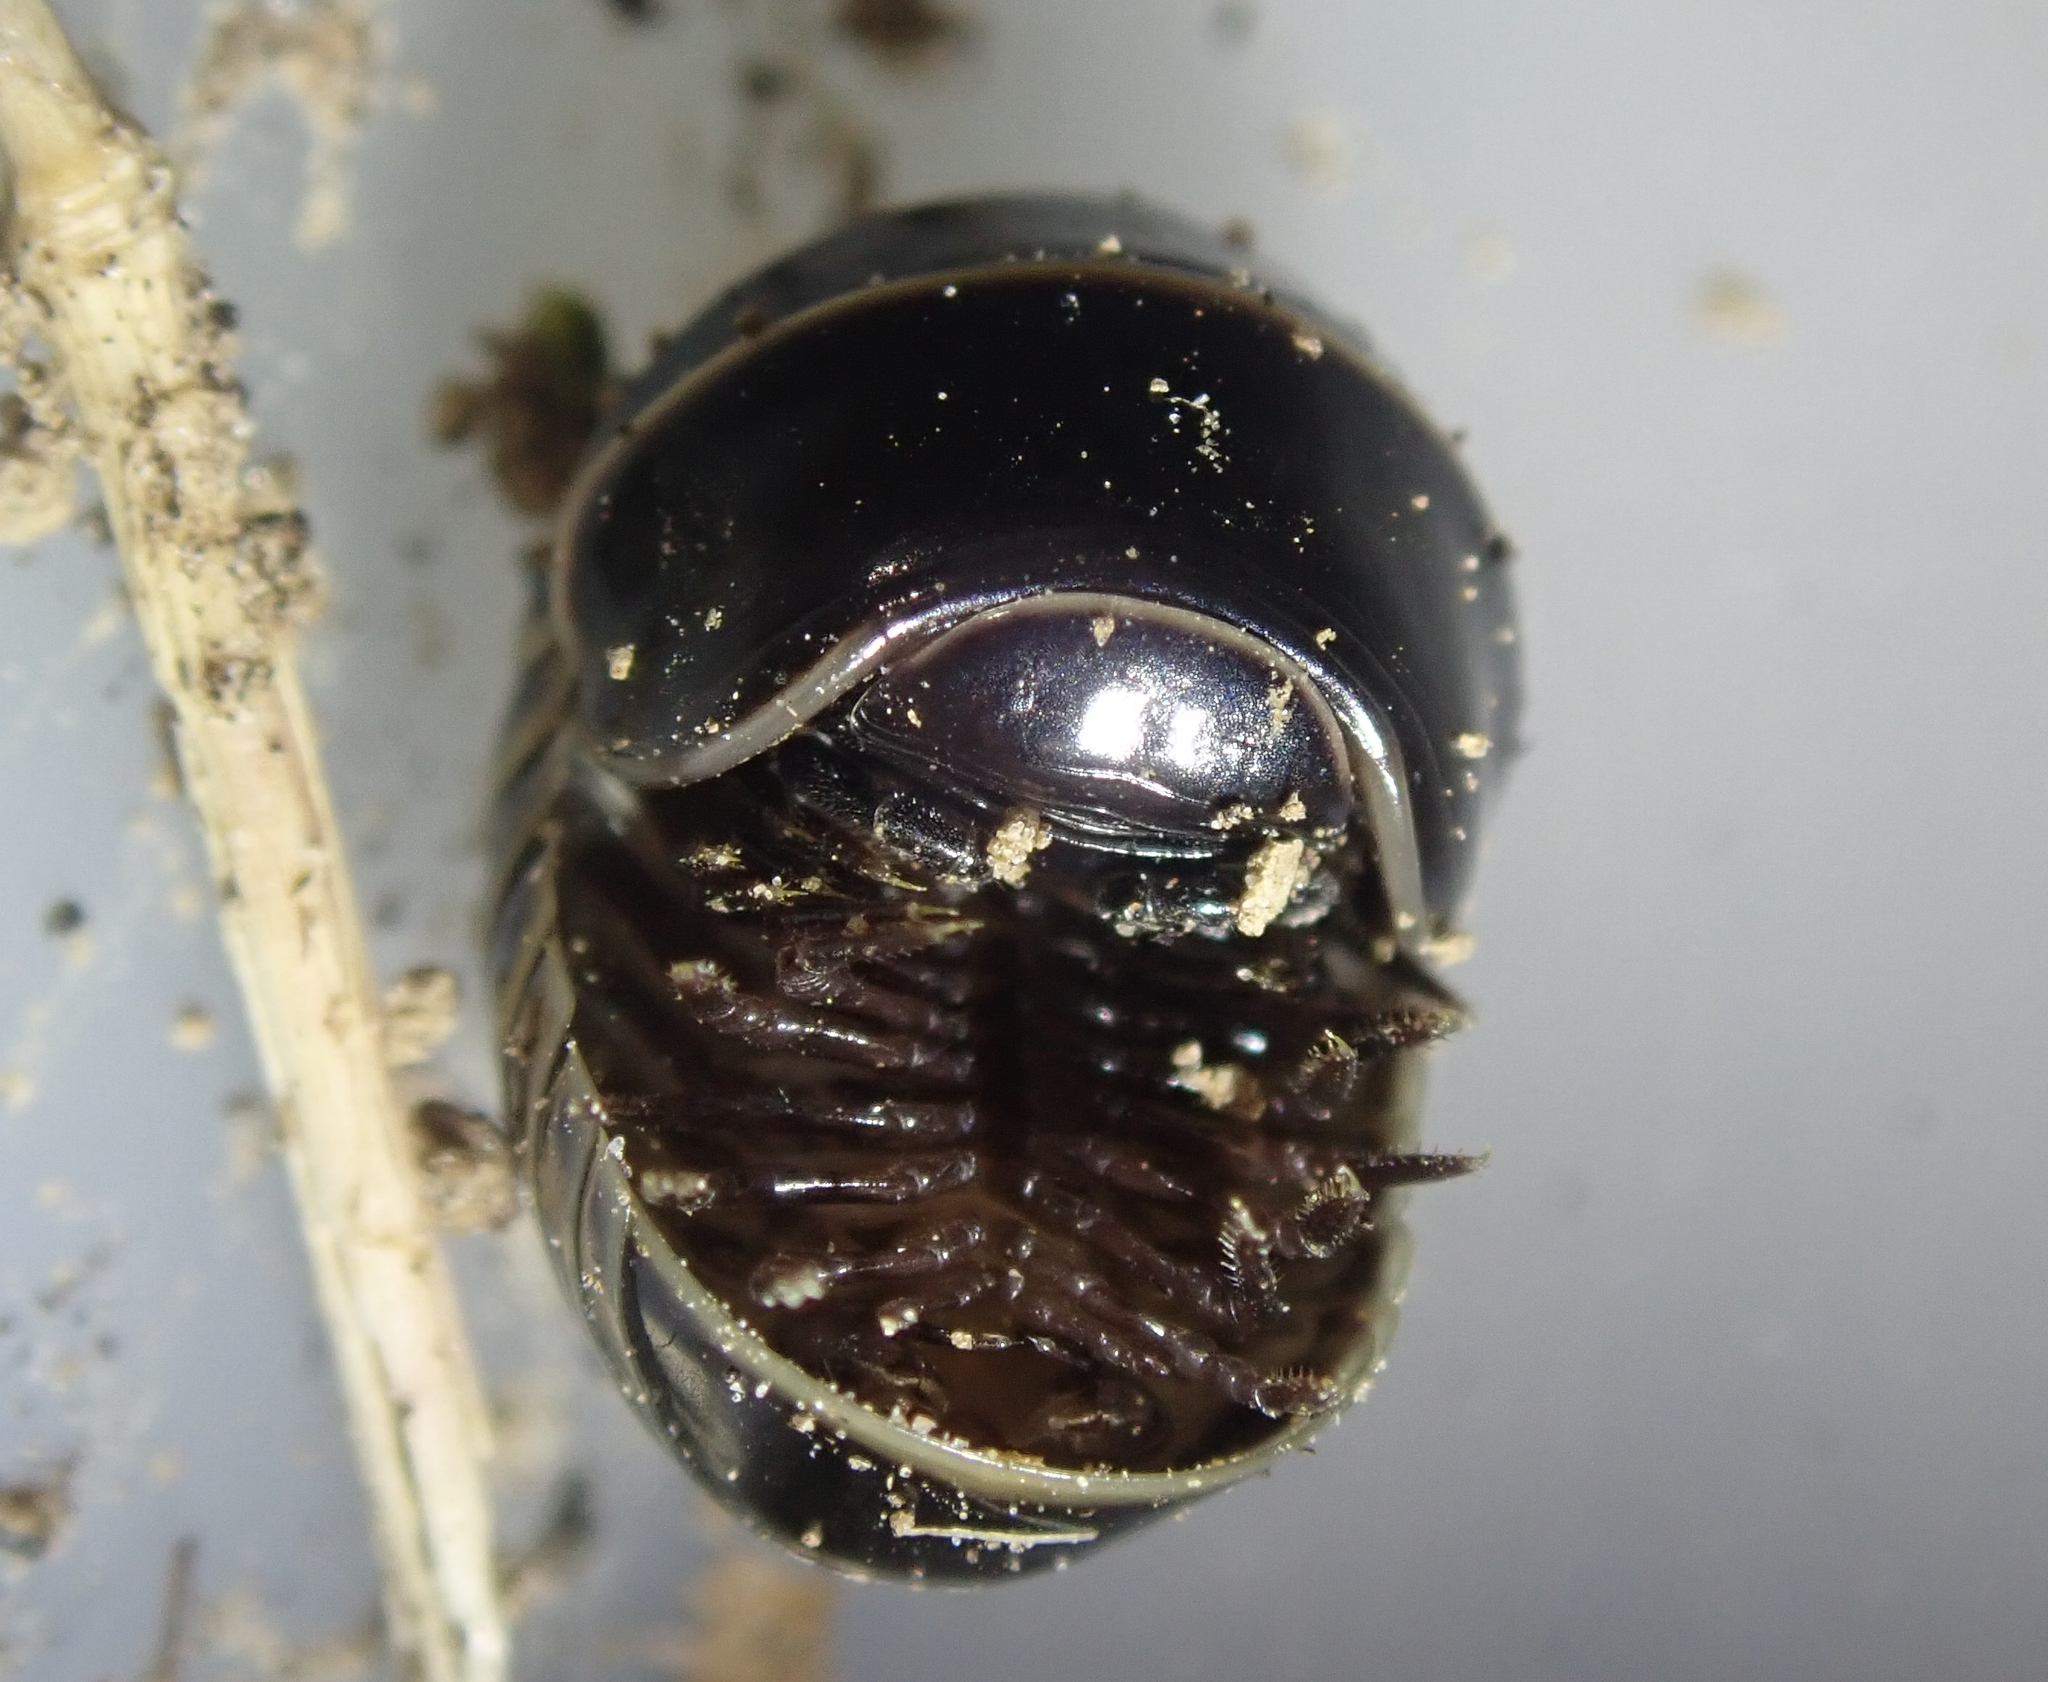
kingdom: Animalia
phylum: Arthropoda
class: Diplopoda
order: Glomerida
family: Glomeridae
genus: Glomeris
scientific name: Glomeris marginata
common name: Bordered pill millipede
